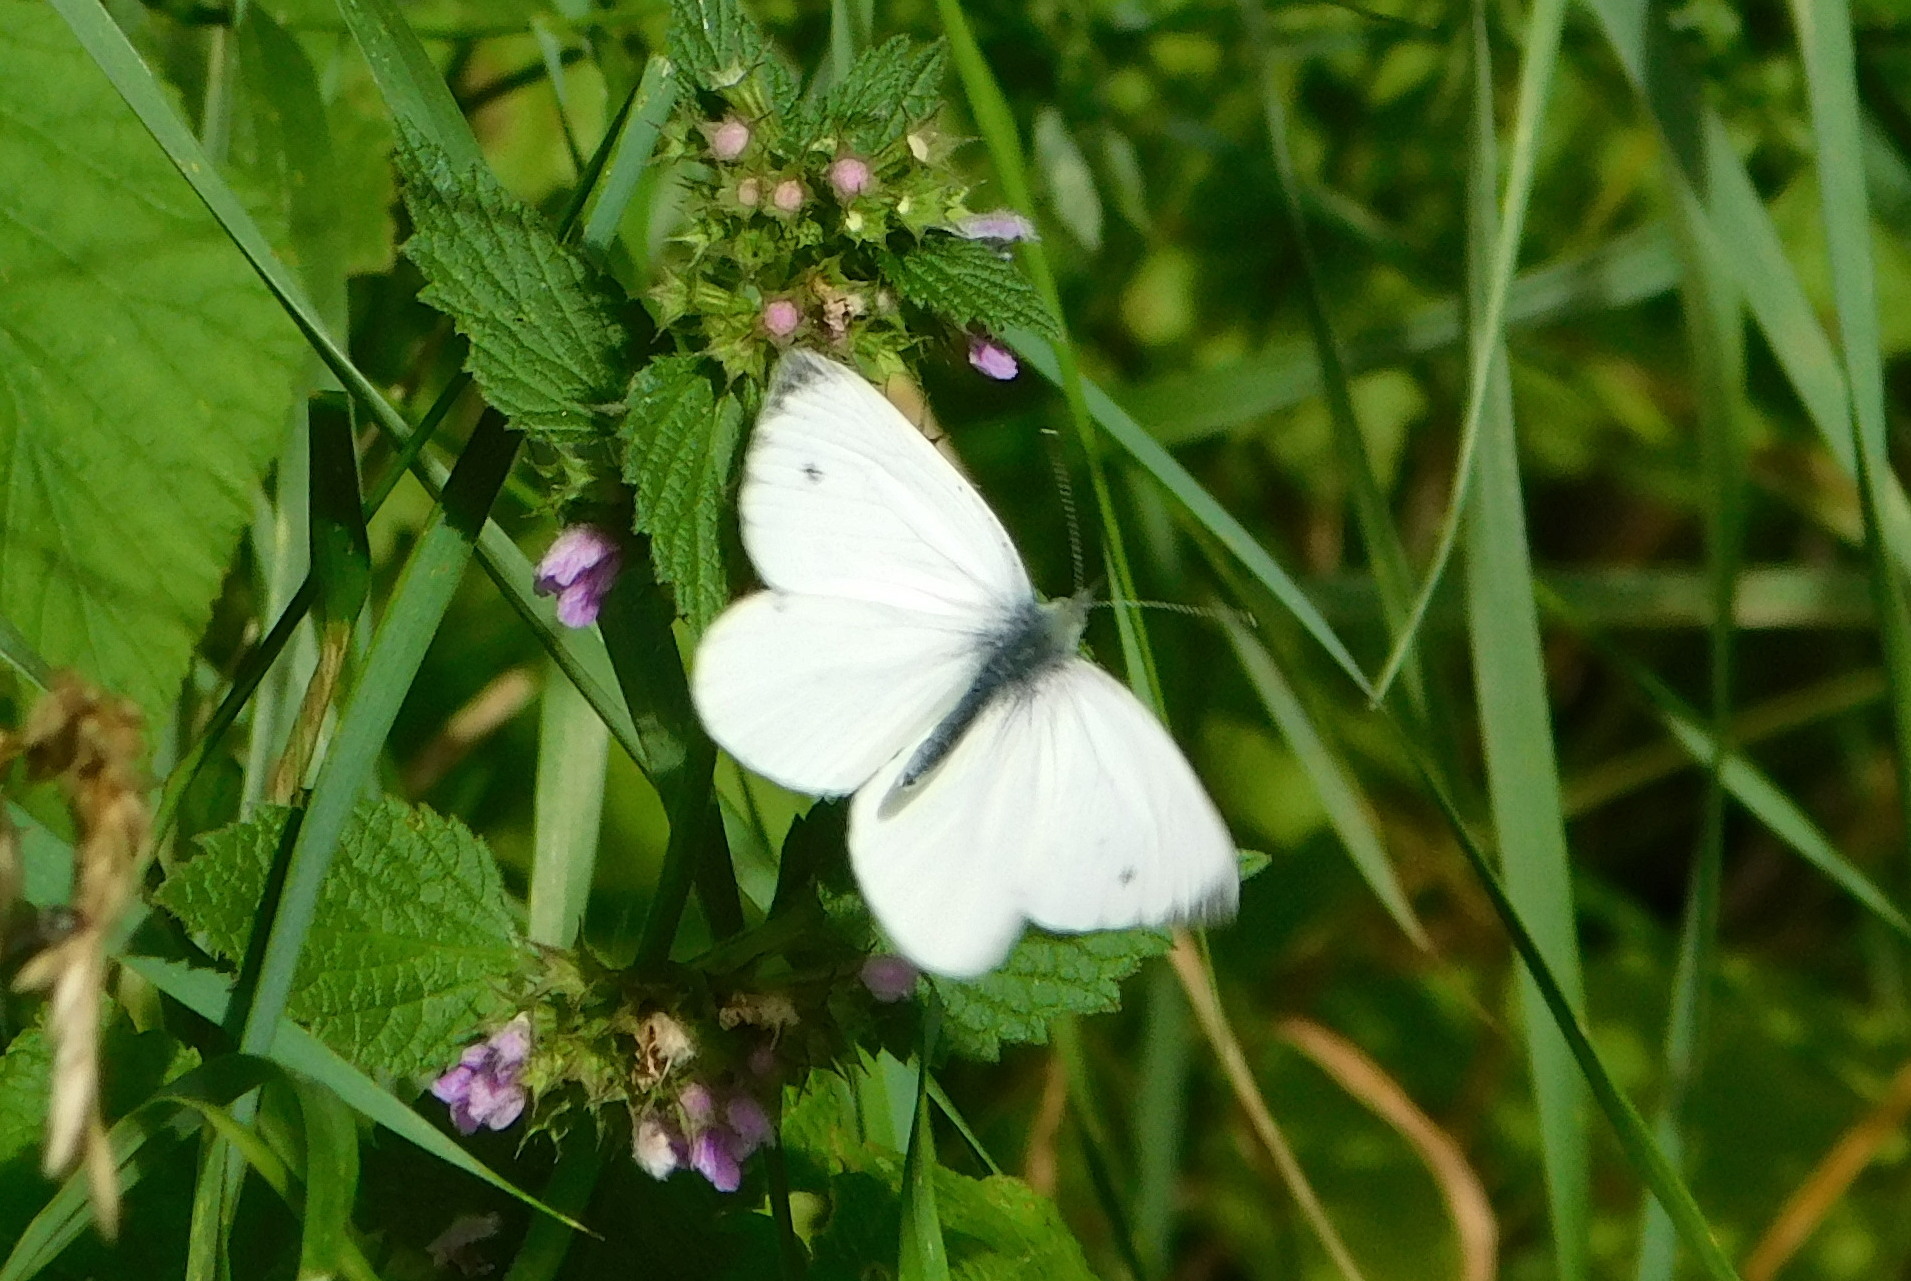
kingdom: Animalia
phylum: Arthropoda
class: Insecta
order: Lepidoptera
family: Pieridae
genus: Pieris
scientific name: Pieris rapae
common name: Small white
